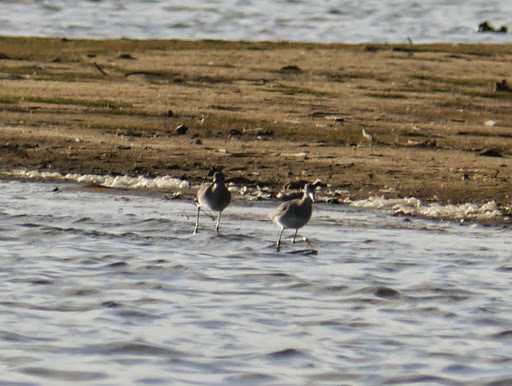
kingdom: Animalia
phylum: Chordata
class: Aves
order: Charadriiformes
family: Scolopacidae
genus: Tringa
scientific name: Tringa melanoleuca
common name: Greater yellowlegs
